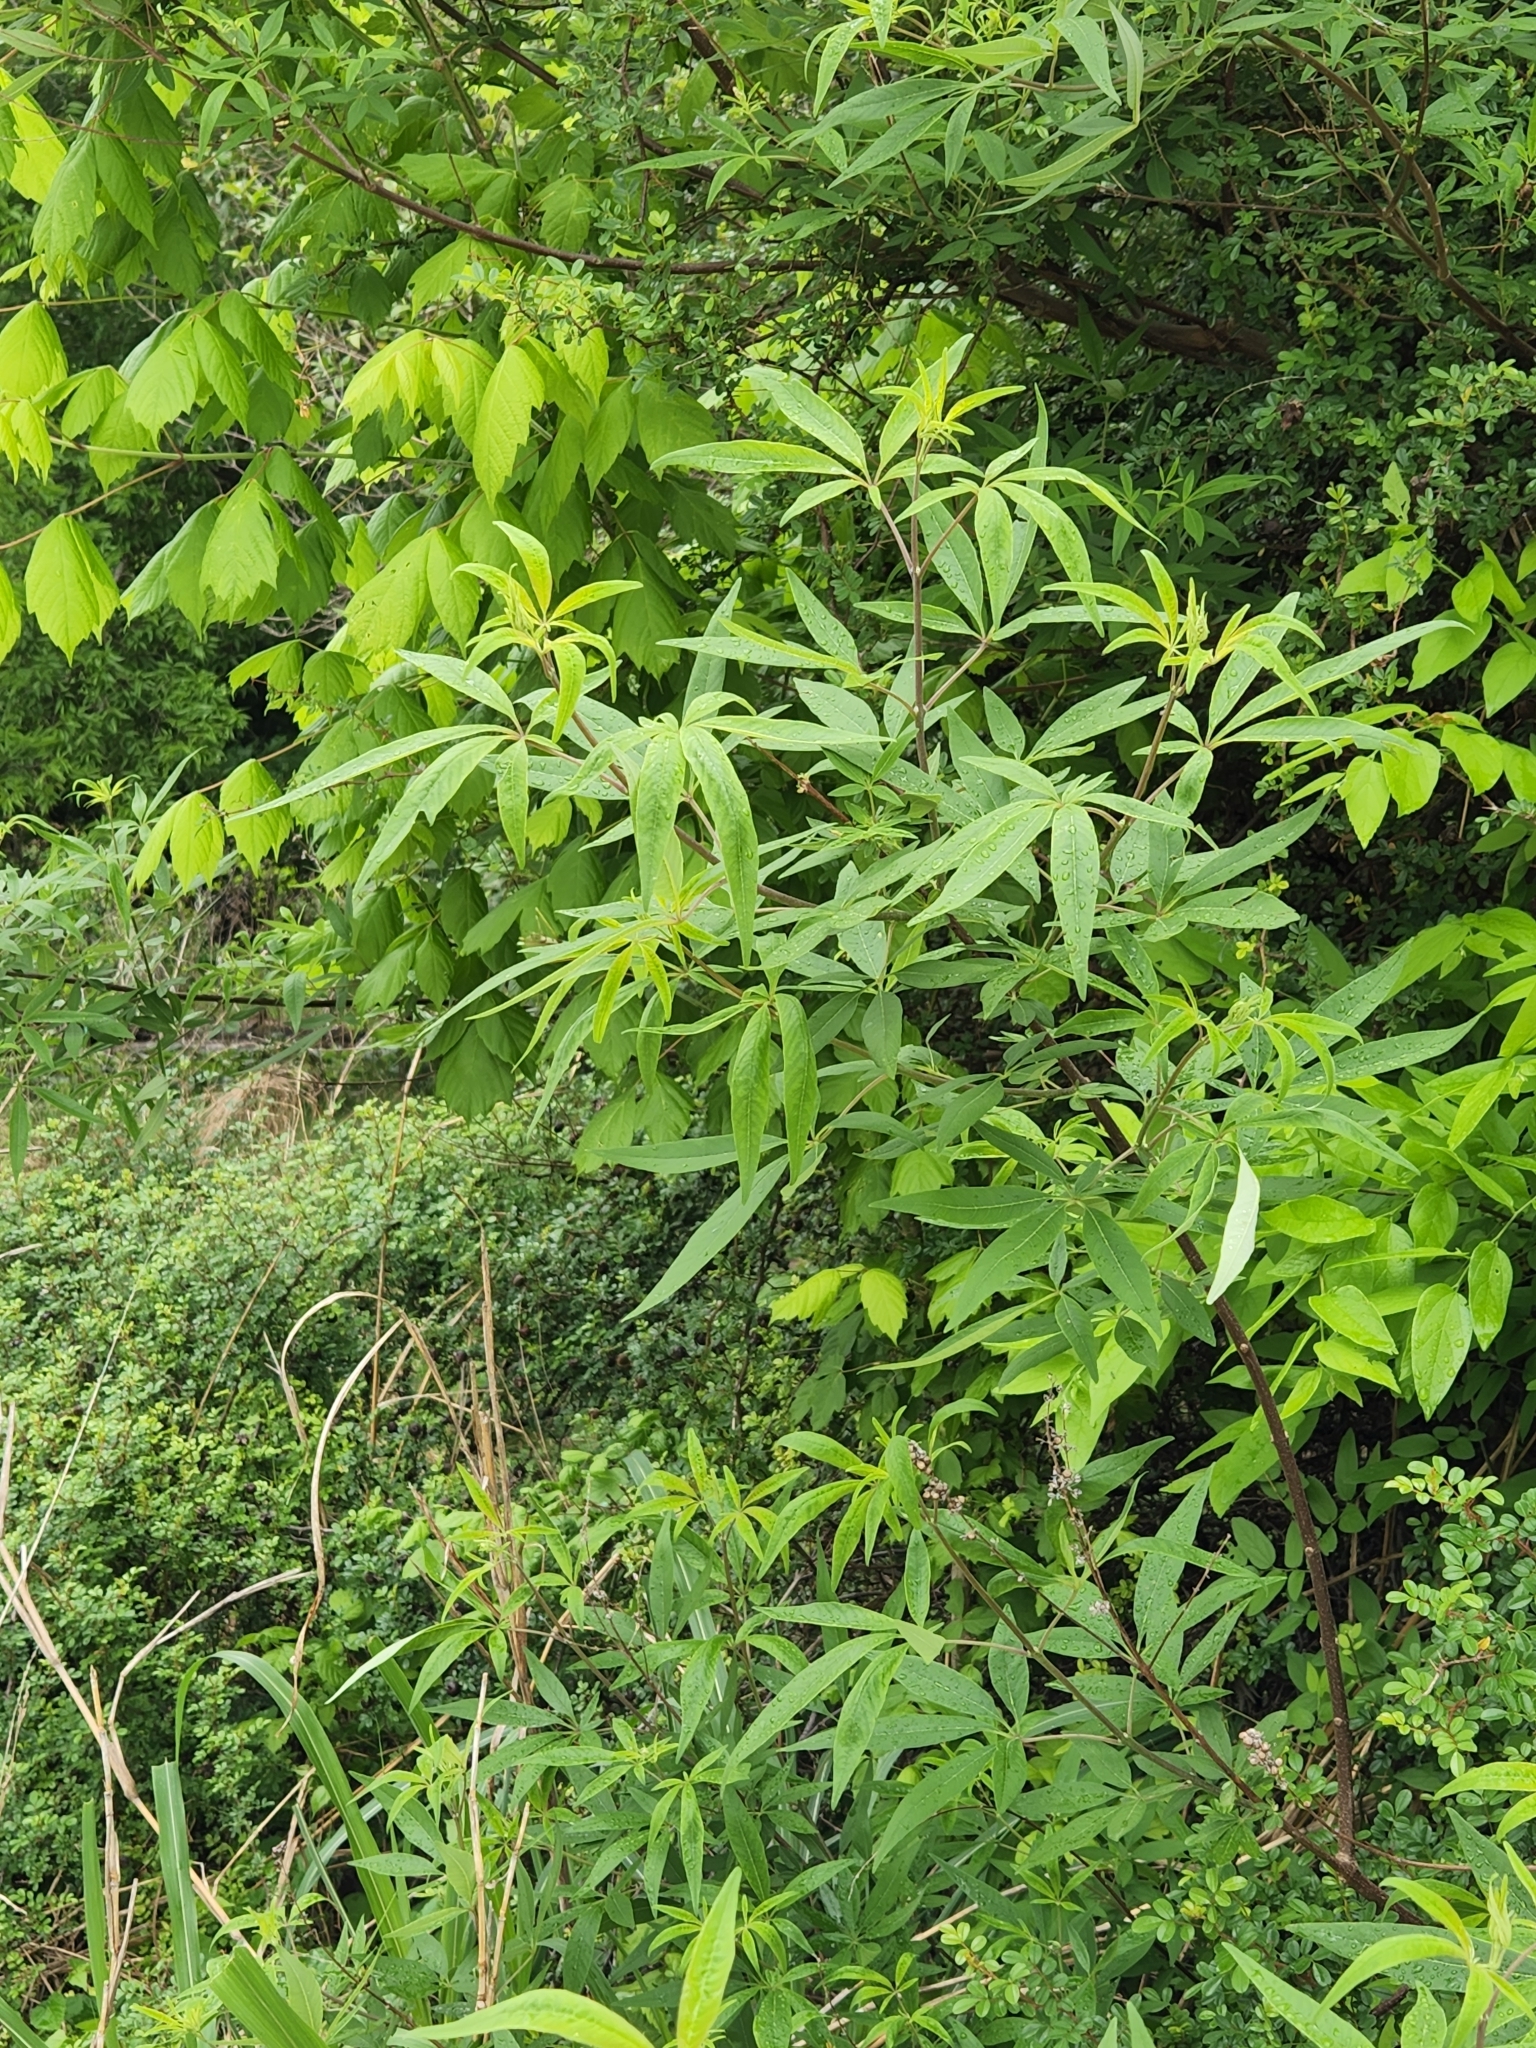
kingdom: Plantae
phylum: Tracheophyta
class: Magnoliopsida
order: Lamiales
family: Lamiaceae
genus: Vitex
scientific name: Vitex agnus-castus
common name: Chasteberry
